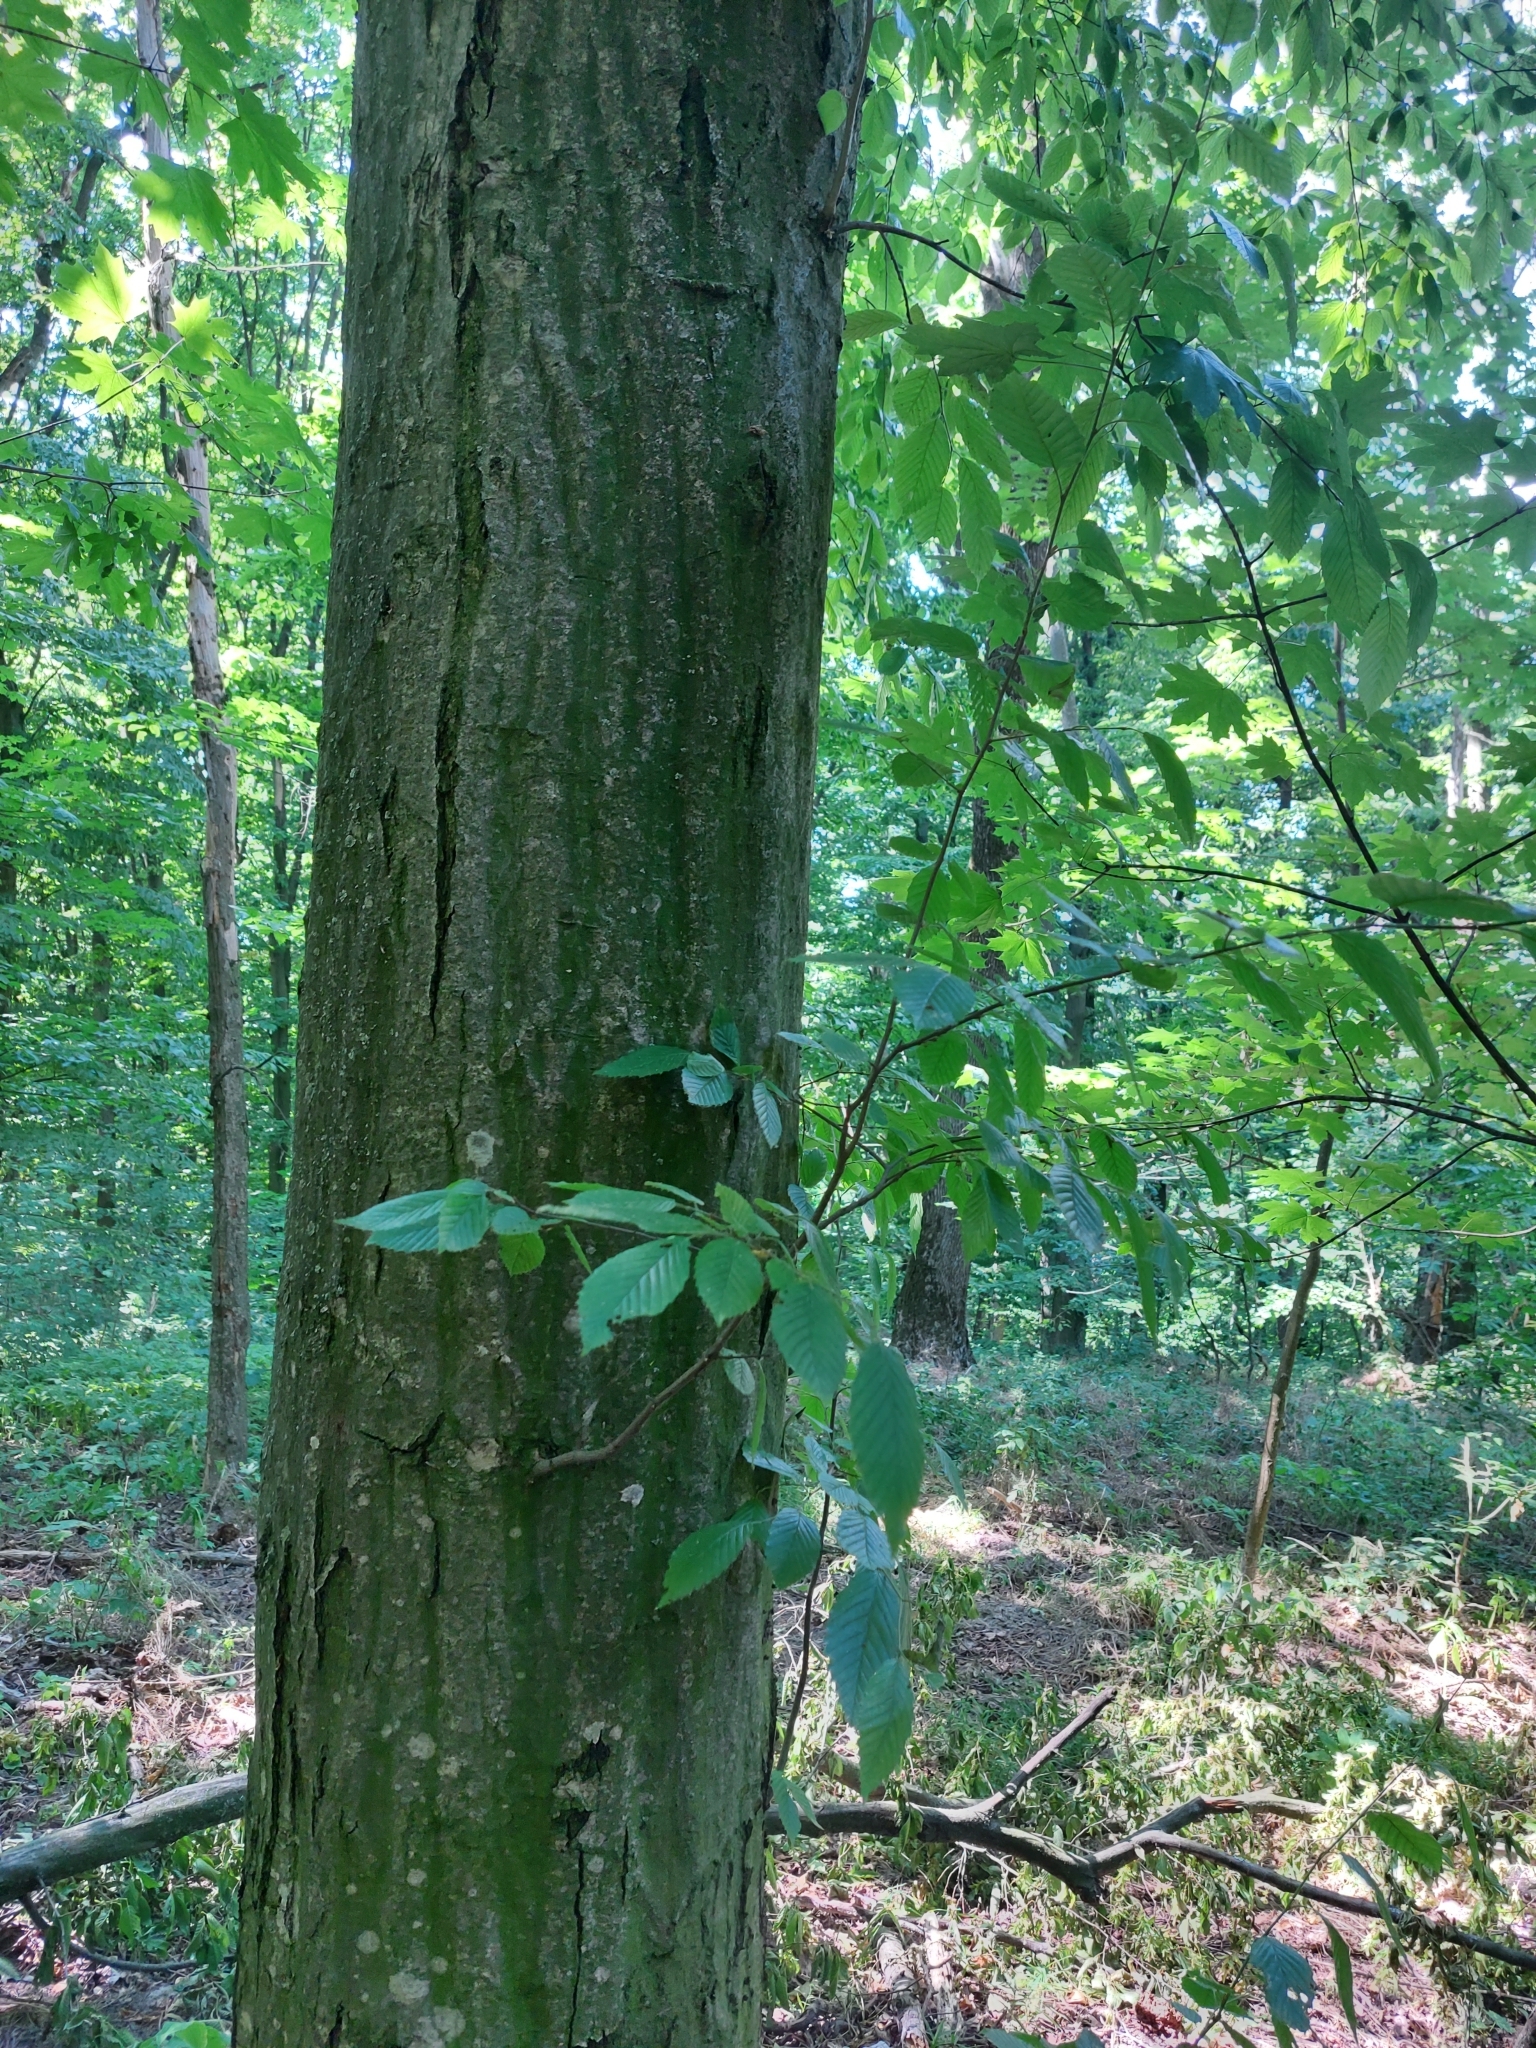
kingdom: Plantae
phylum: Tracheophyta
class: Magnoliopsida
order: Fagales
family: Betulaceae
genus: Carpinus
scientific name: Carpinus betulus
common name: Hornbeam
